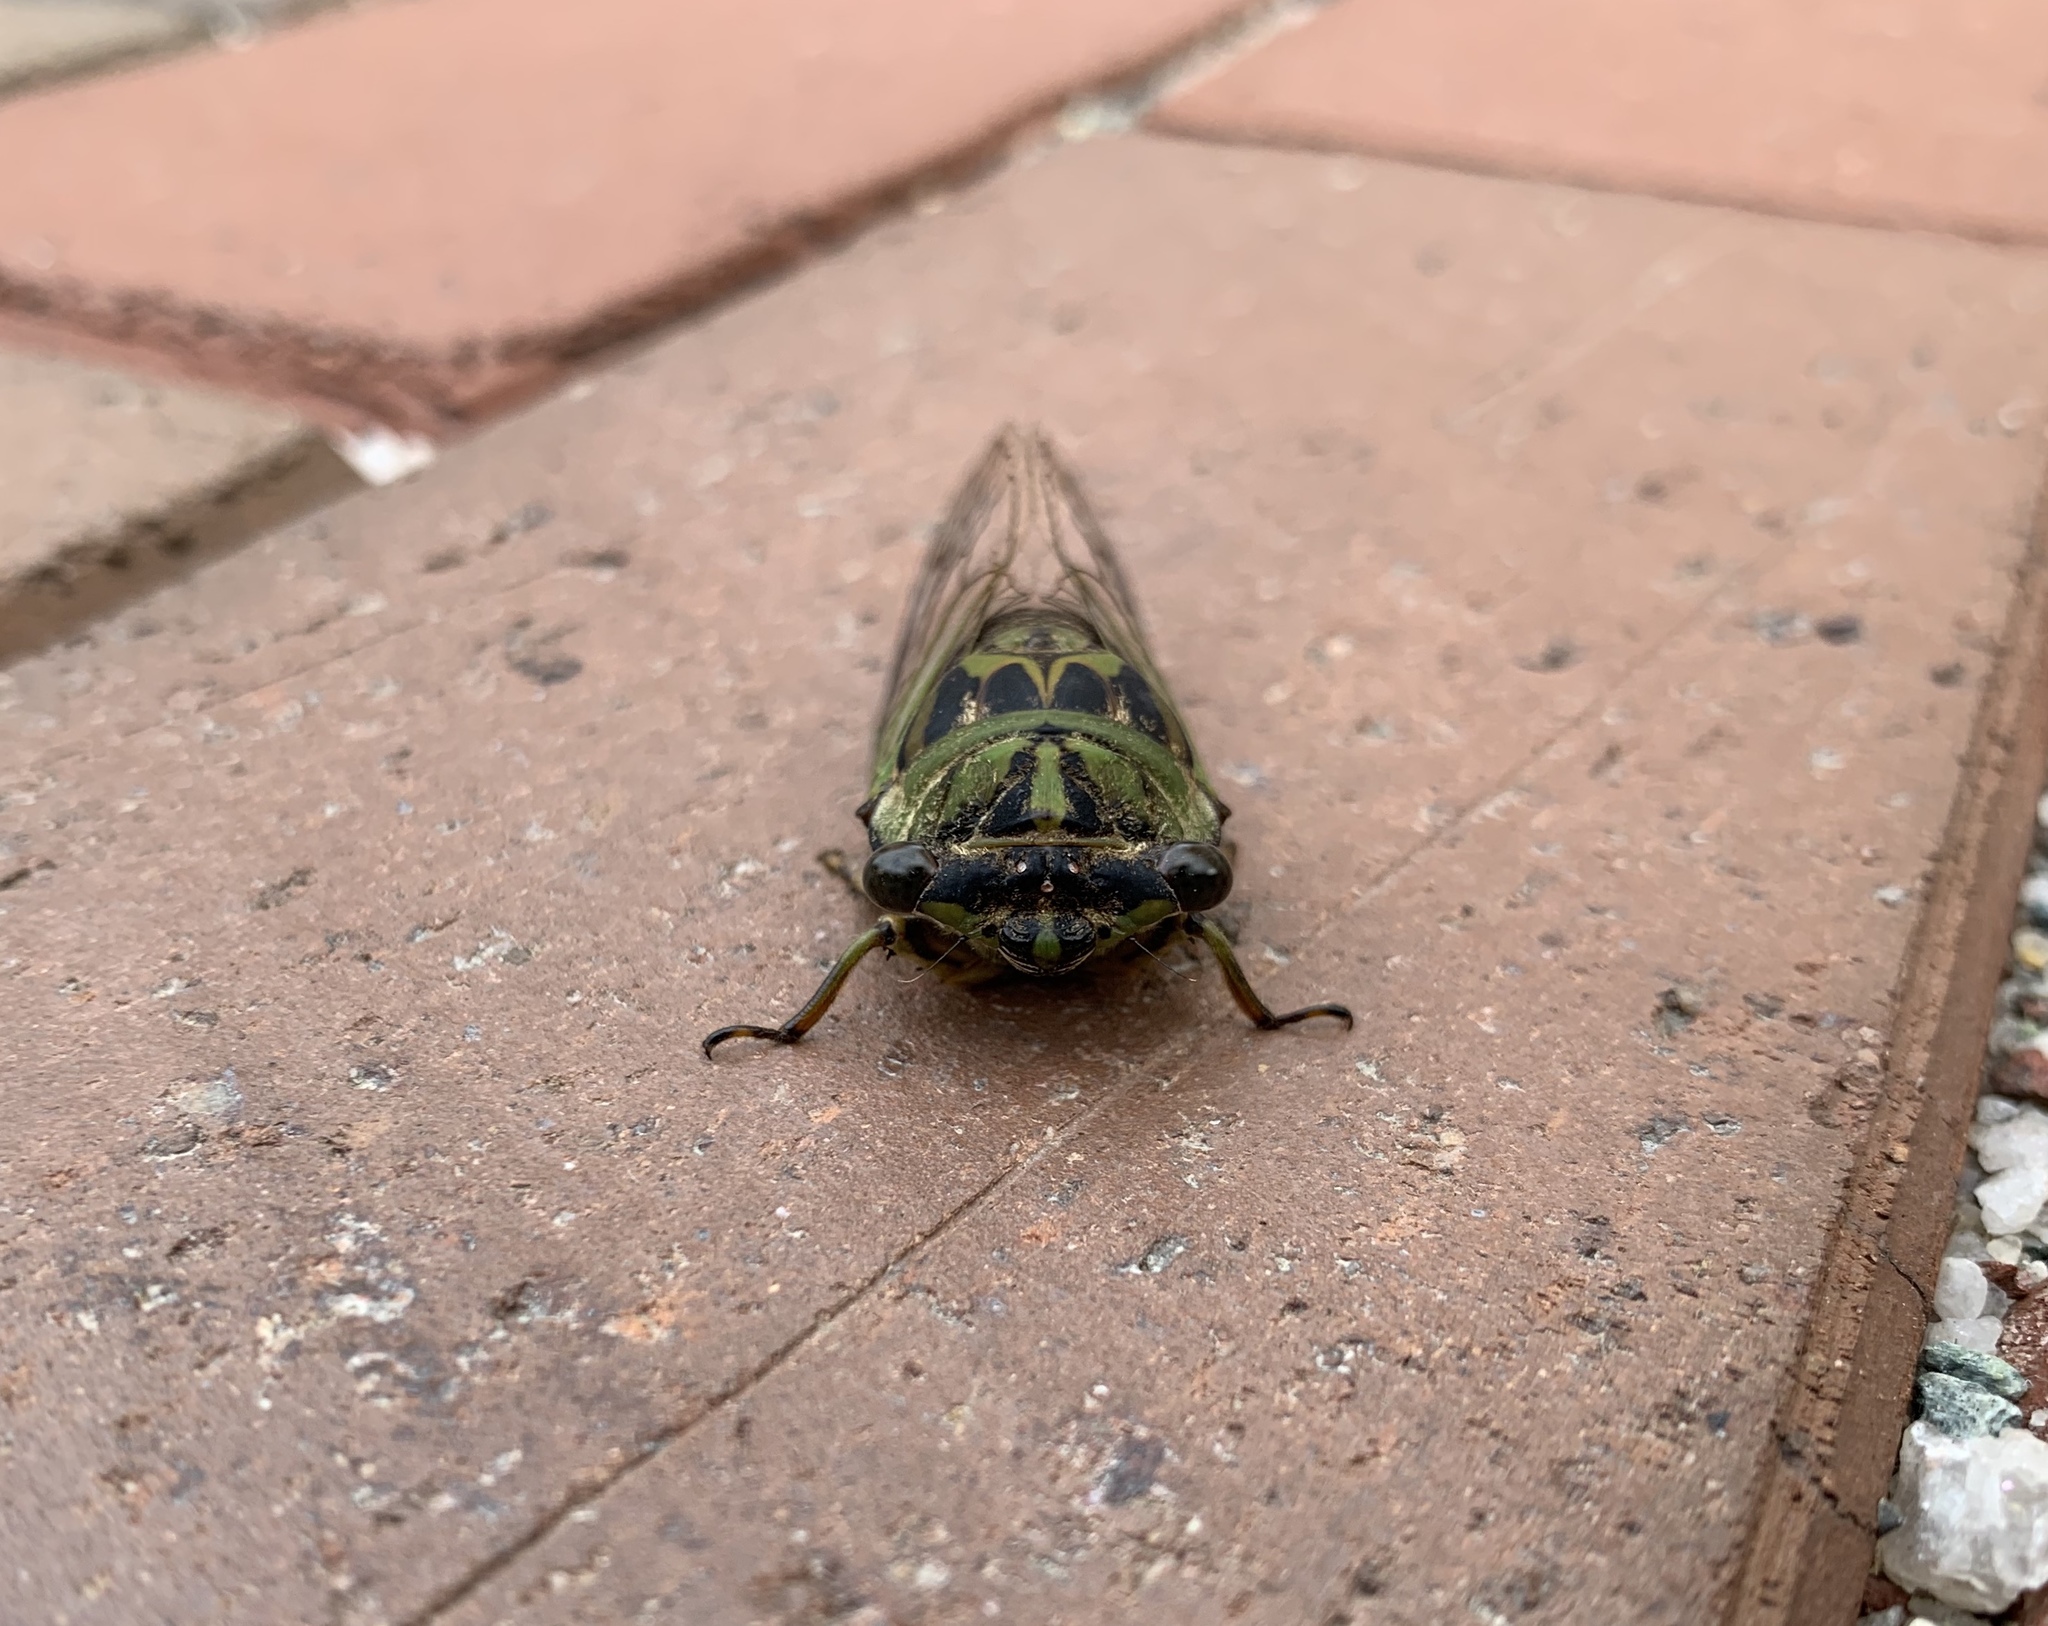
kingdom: Animalia
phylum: Arthropoda
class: Insecta
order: Hemiptera
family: Cicadidae
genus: Neotibicen
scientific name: Neotibicen linnei
